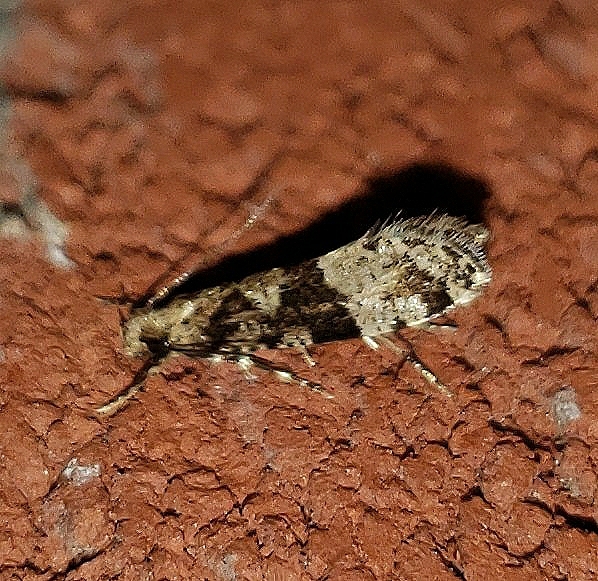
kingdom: Animalia
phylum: Arthropoda
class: Insecta
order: Lepidoptera
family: Tineidae
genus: Scardiella
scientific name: Scardiella approximatella
